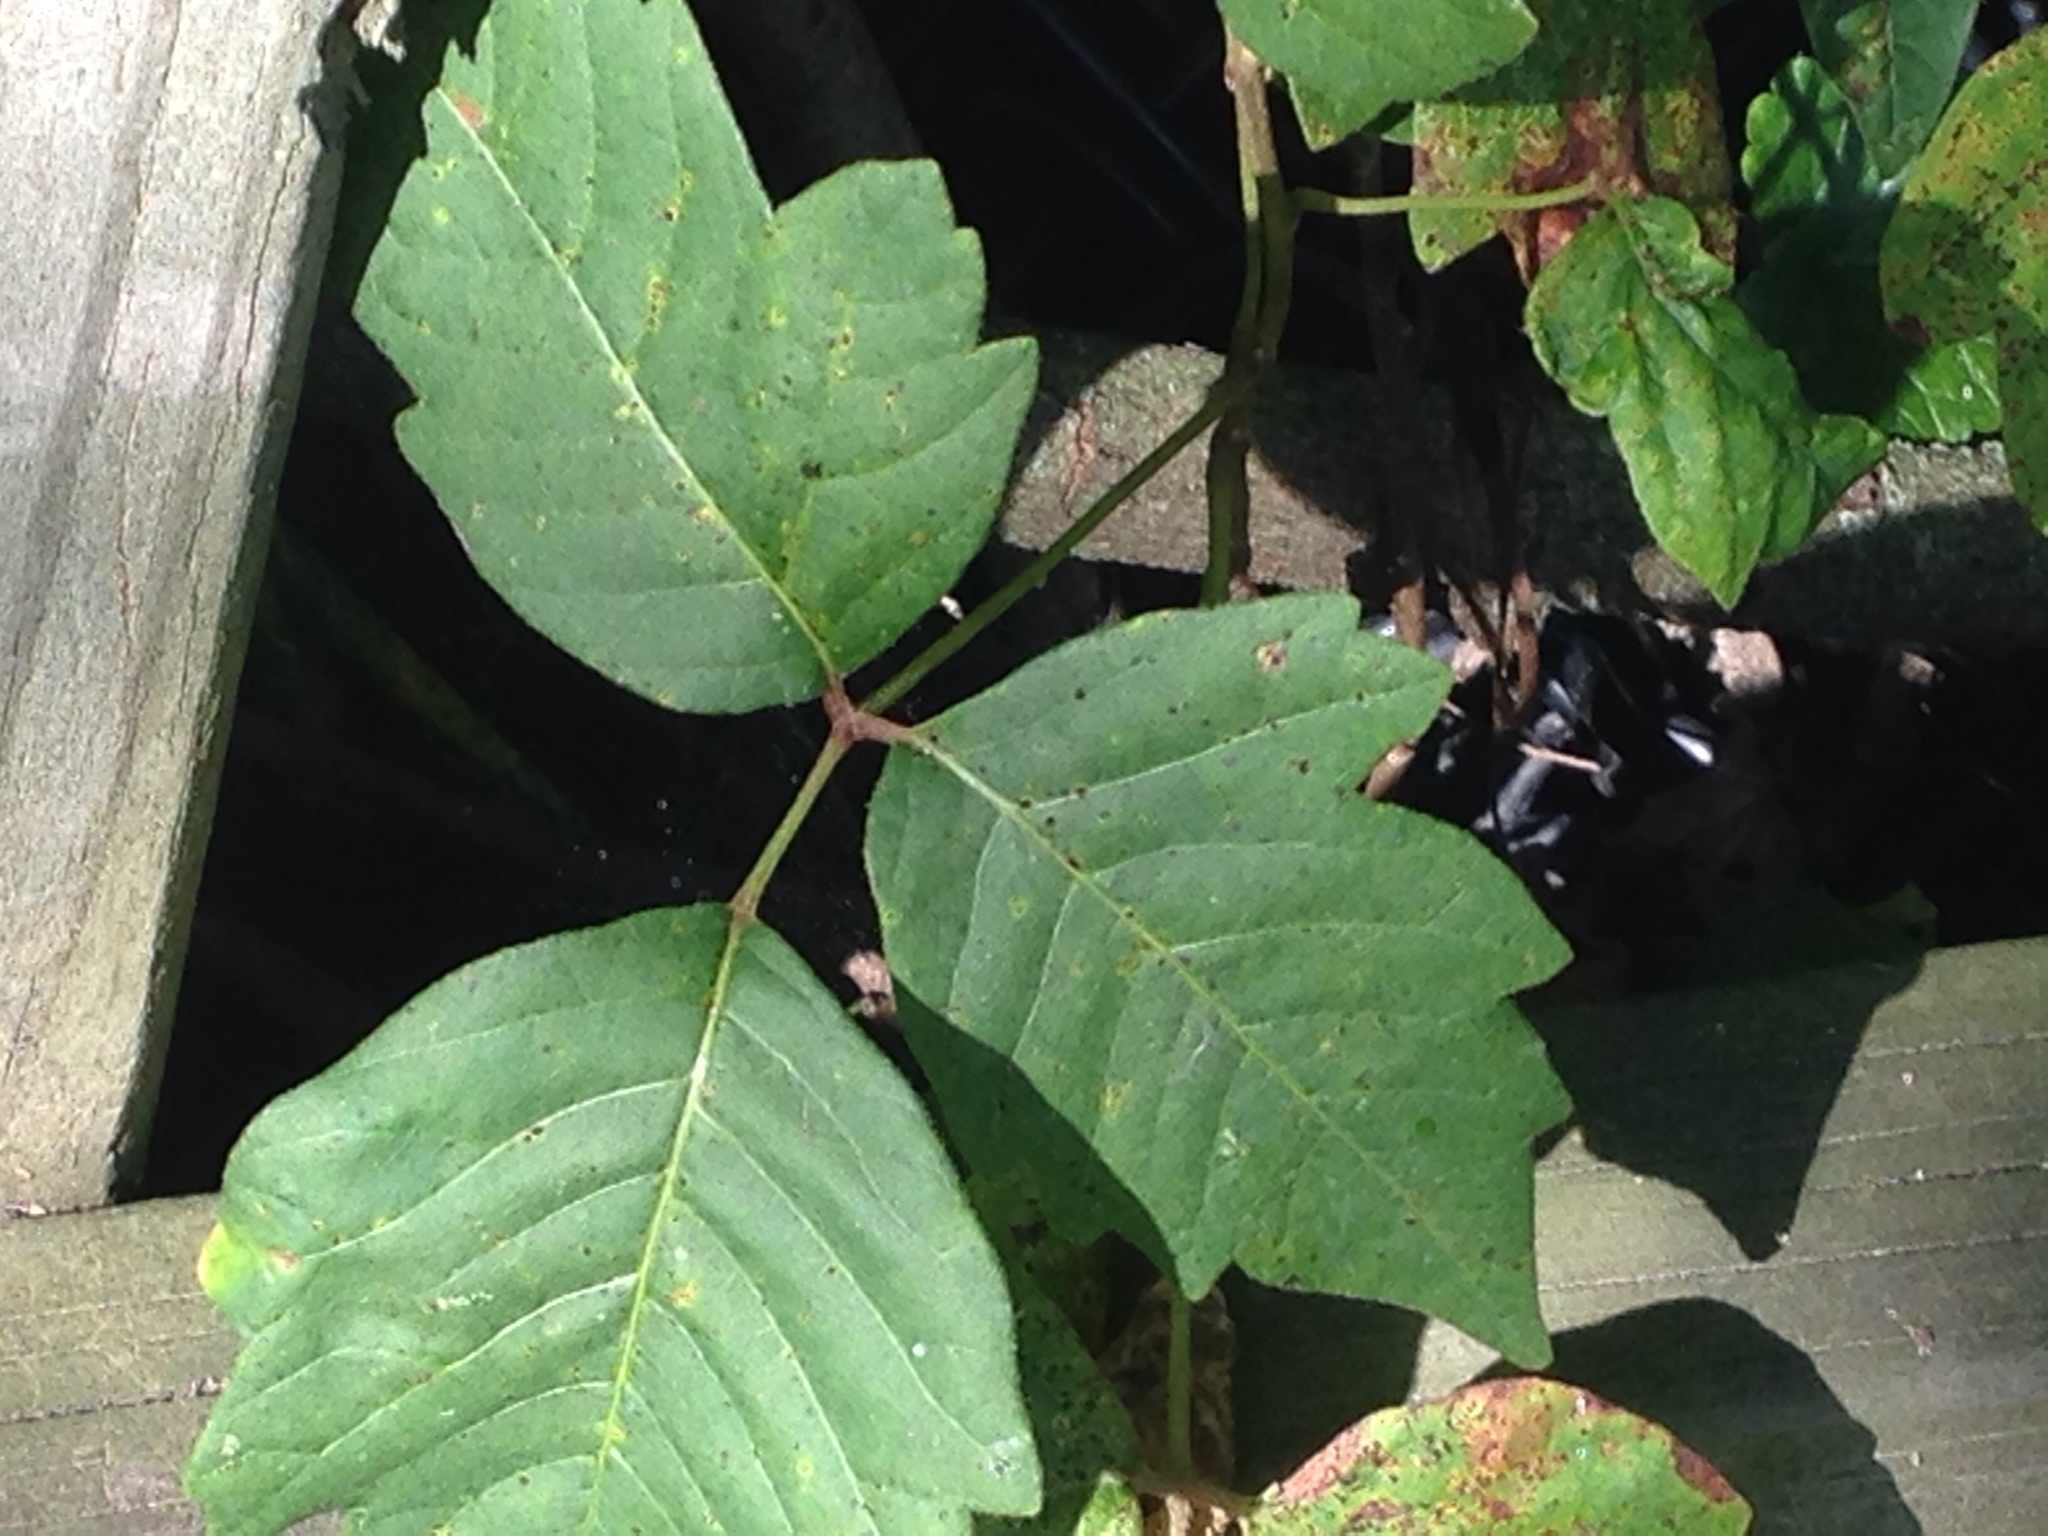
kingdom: Plantae
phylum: Tracheophyta
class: Magnoliopsida
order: Sapindales
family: Anacardiaceae
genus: Toxicodendron
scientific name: Toxicodendron radicans
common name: Poison ivy
